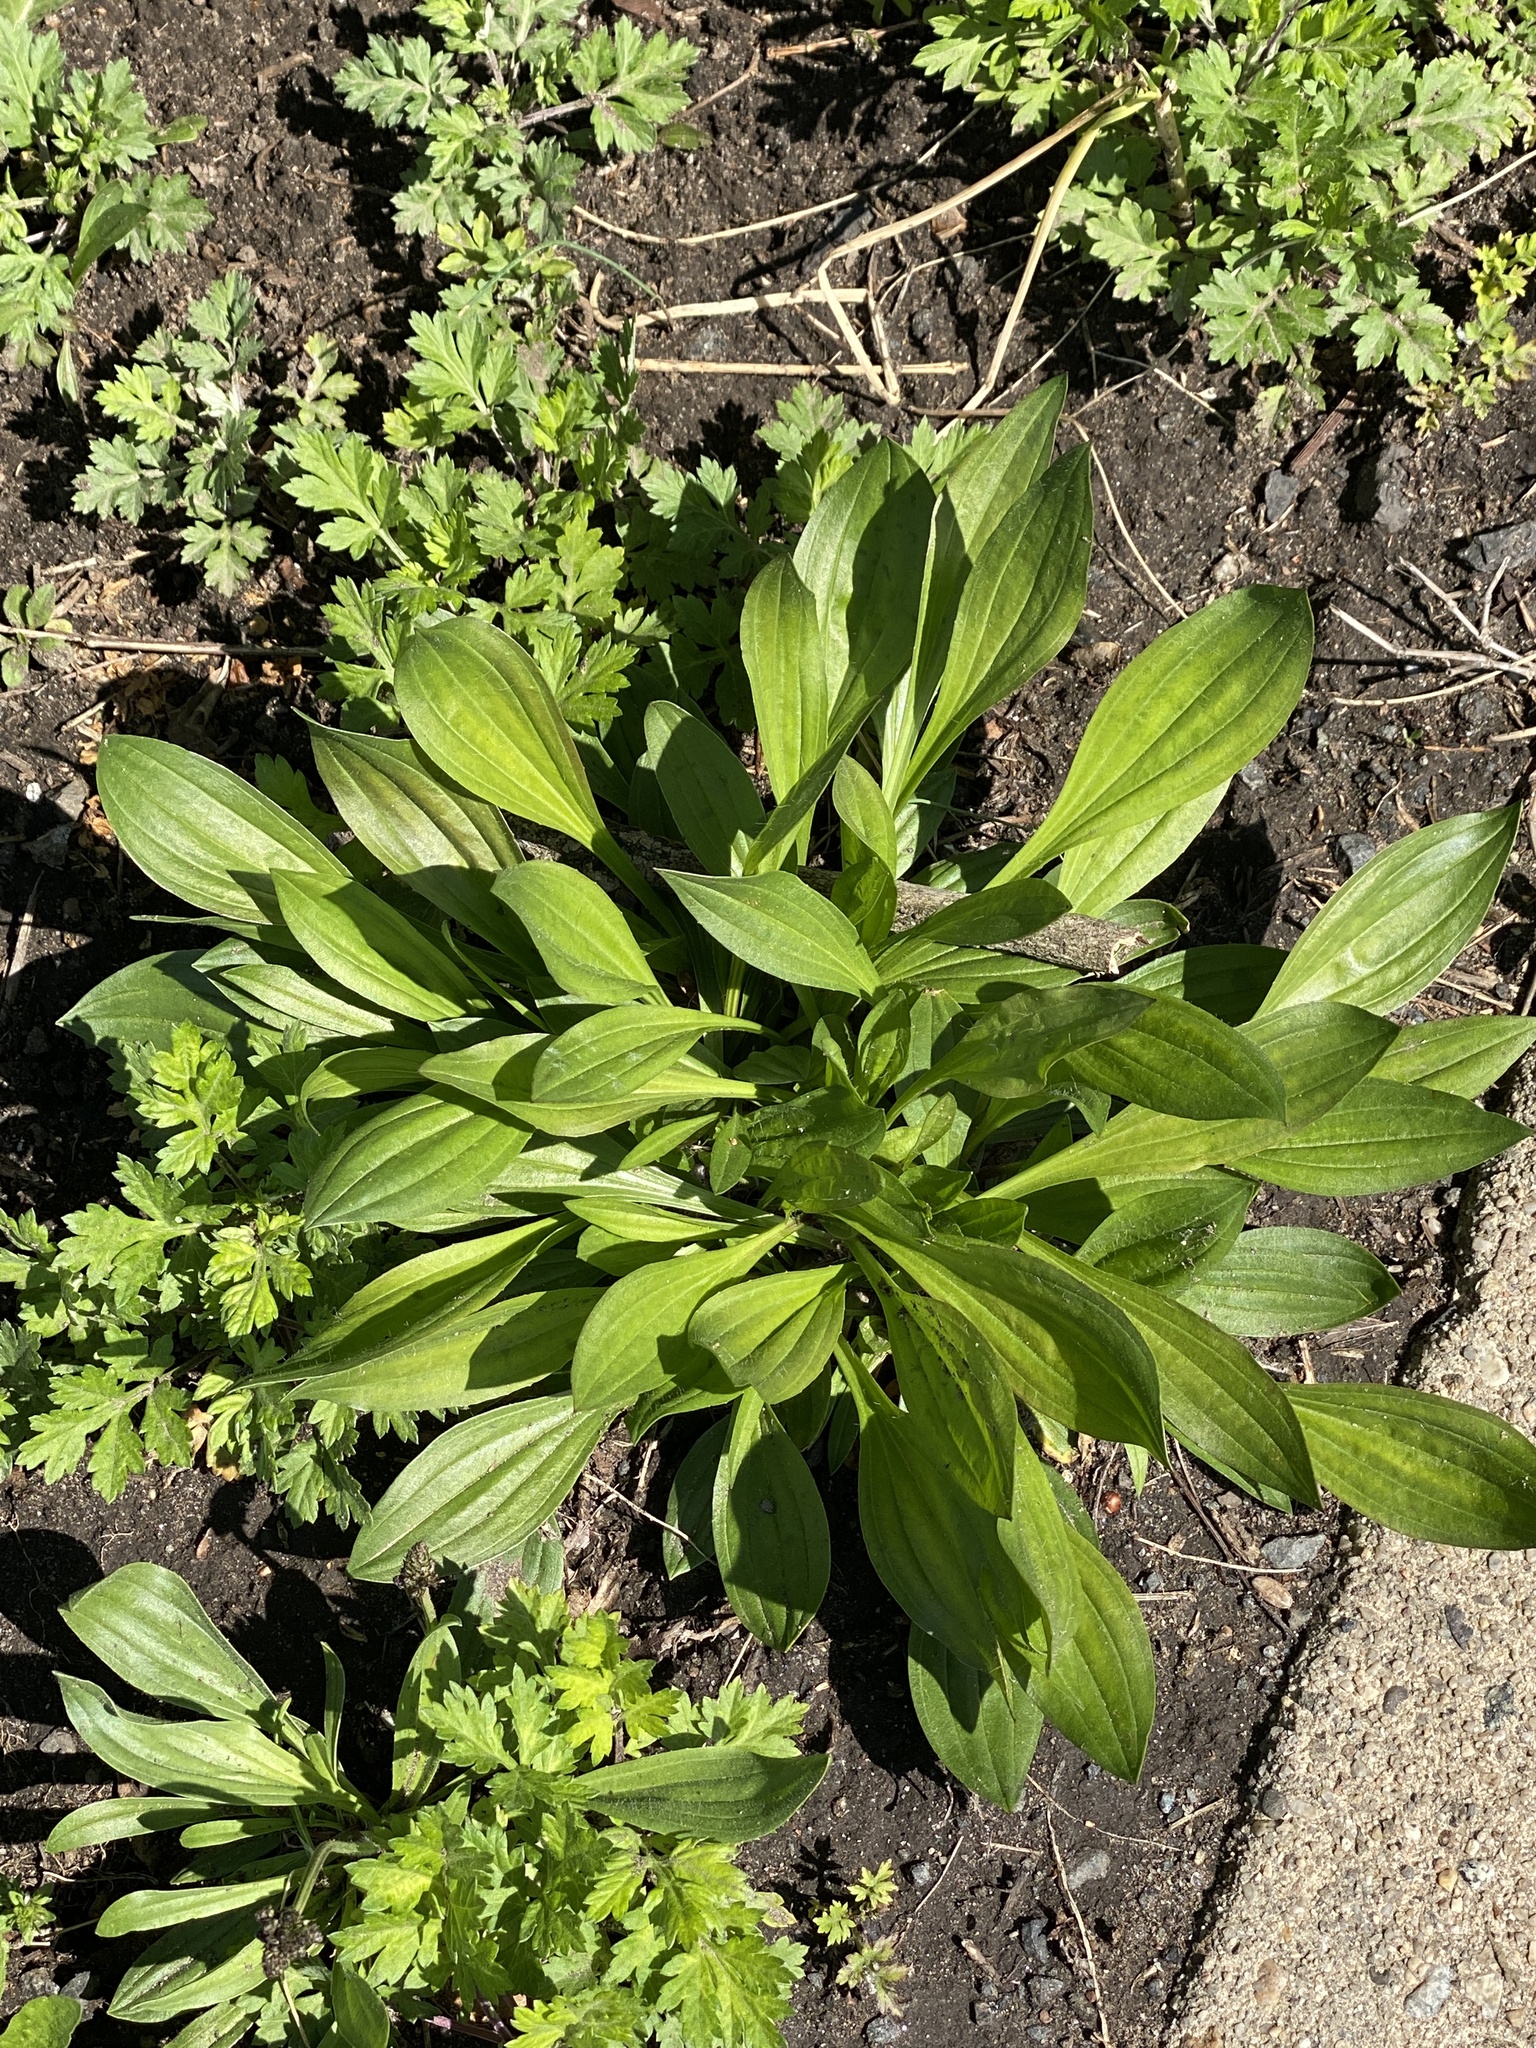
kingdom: Plantae
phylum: Tracheophyta
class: Magnoliopsida
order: Lamiales
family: Plantaginaceae
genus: Plantago
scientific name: Plantago lanceolata
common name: Ribwort plantain
